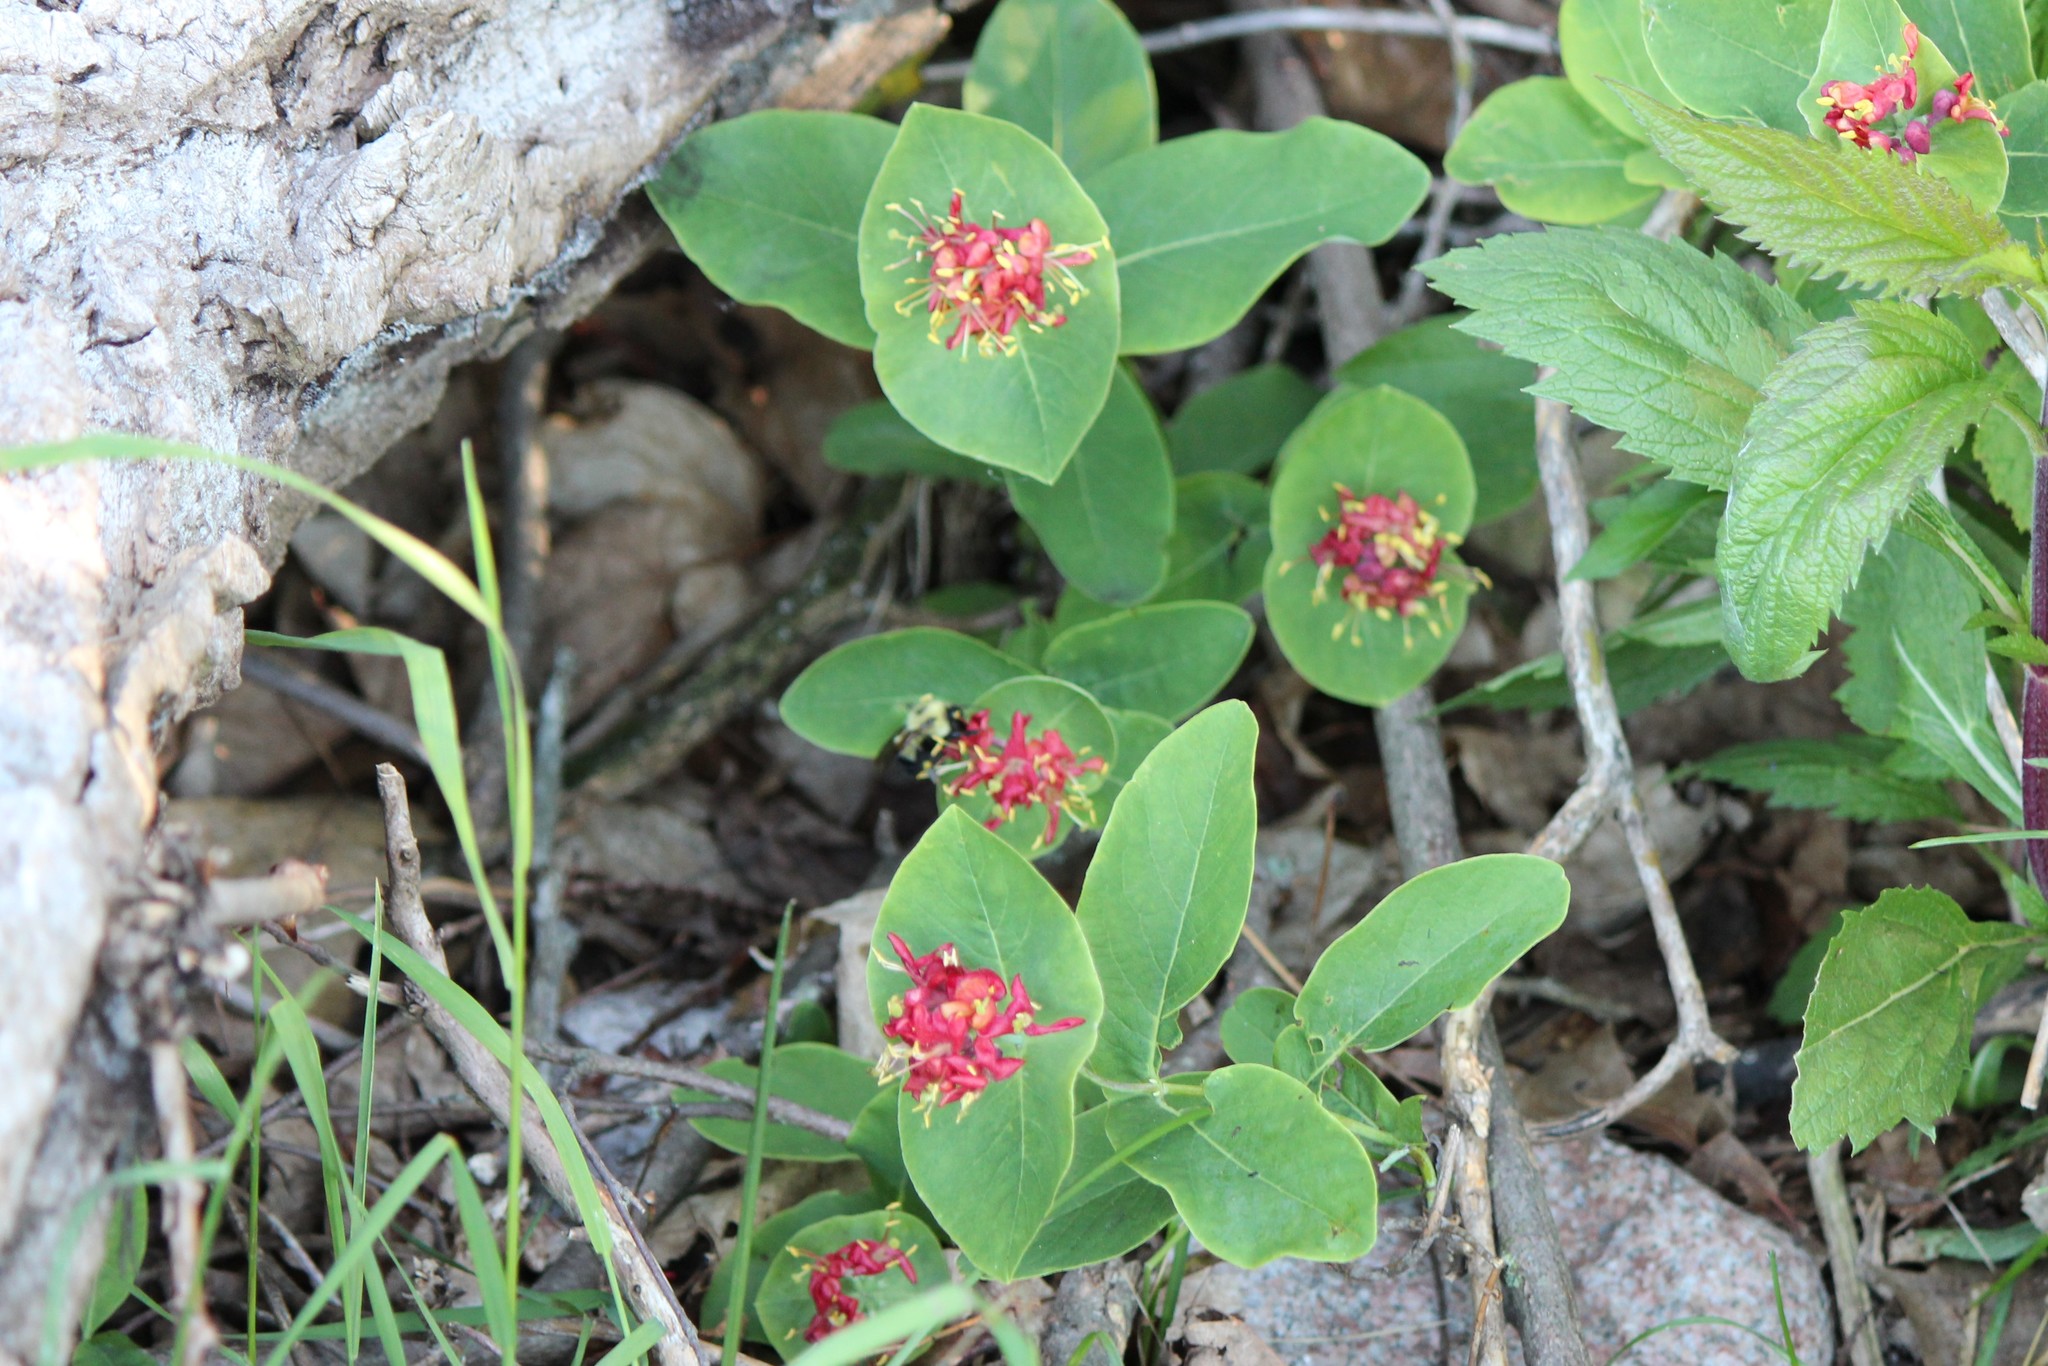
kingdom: Plantae
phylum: Tracheophyta
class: Magnoliopsida
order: Dipsacales
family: Caprifoliaceae
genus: Lonicera
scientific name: Lonicera dioica
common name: Limber honeysuckle
